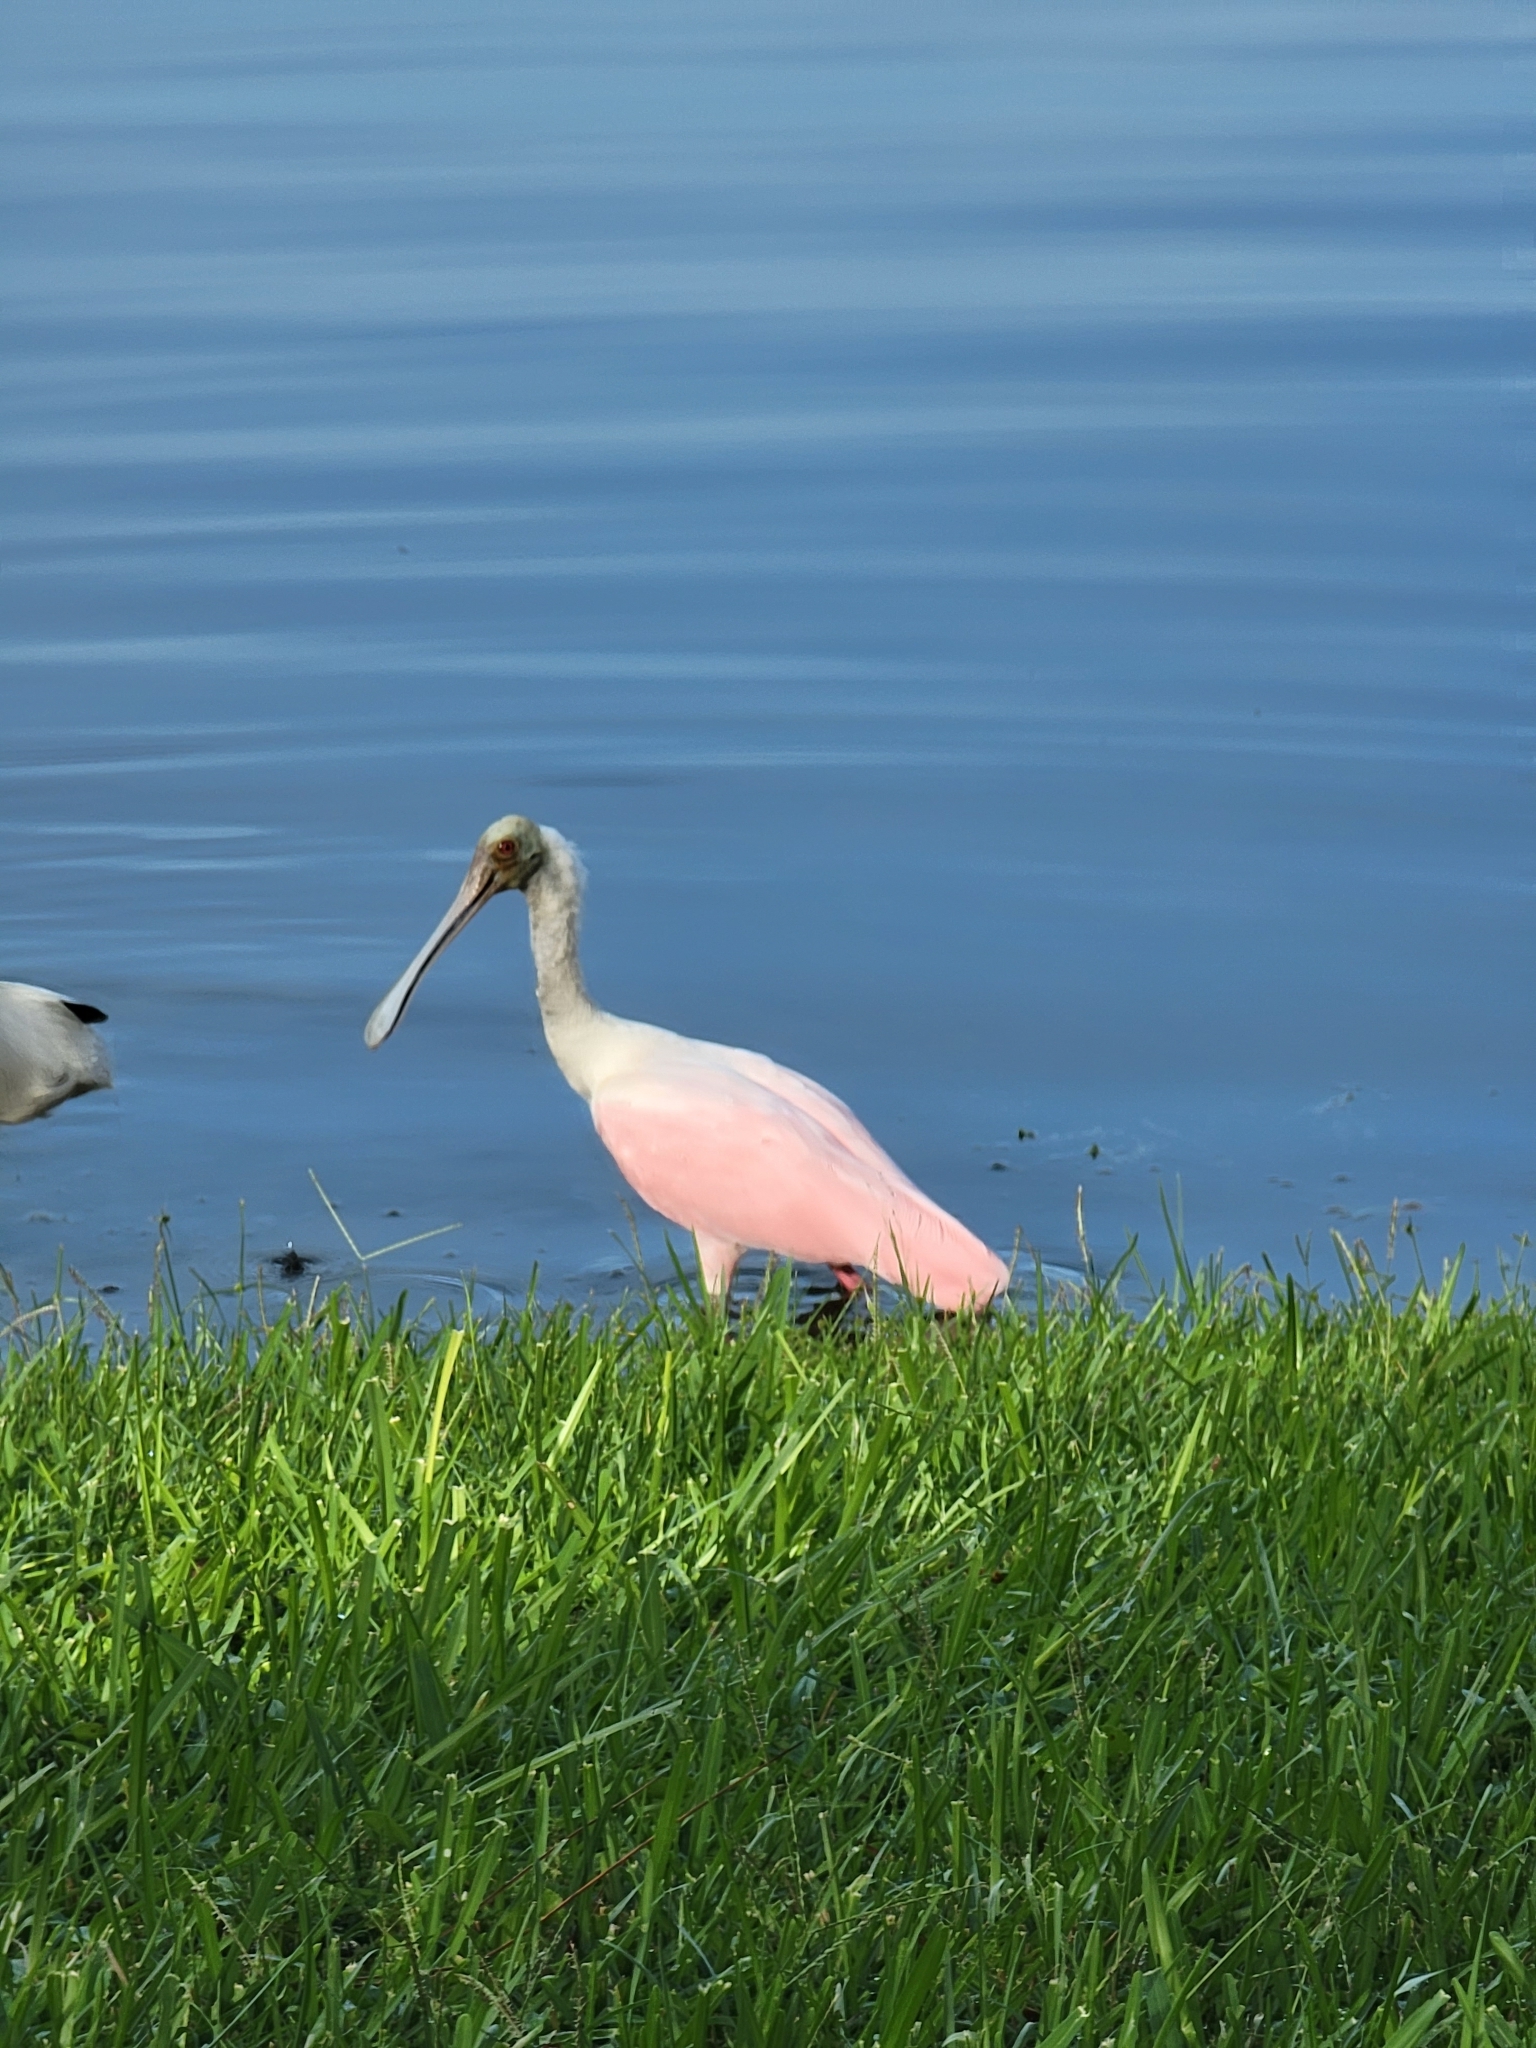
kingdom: Animalia
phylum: Chordata
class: Aves
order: Pelecaniformes
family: Threskiornithidae
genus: Platalea
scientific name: Platalea ajaja
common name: Roseate spoonbill
